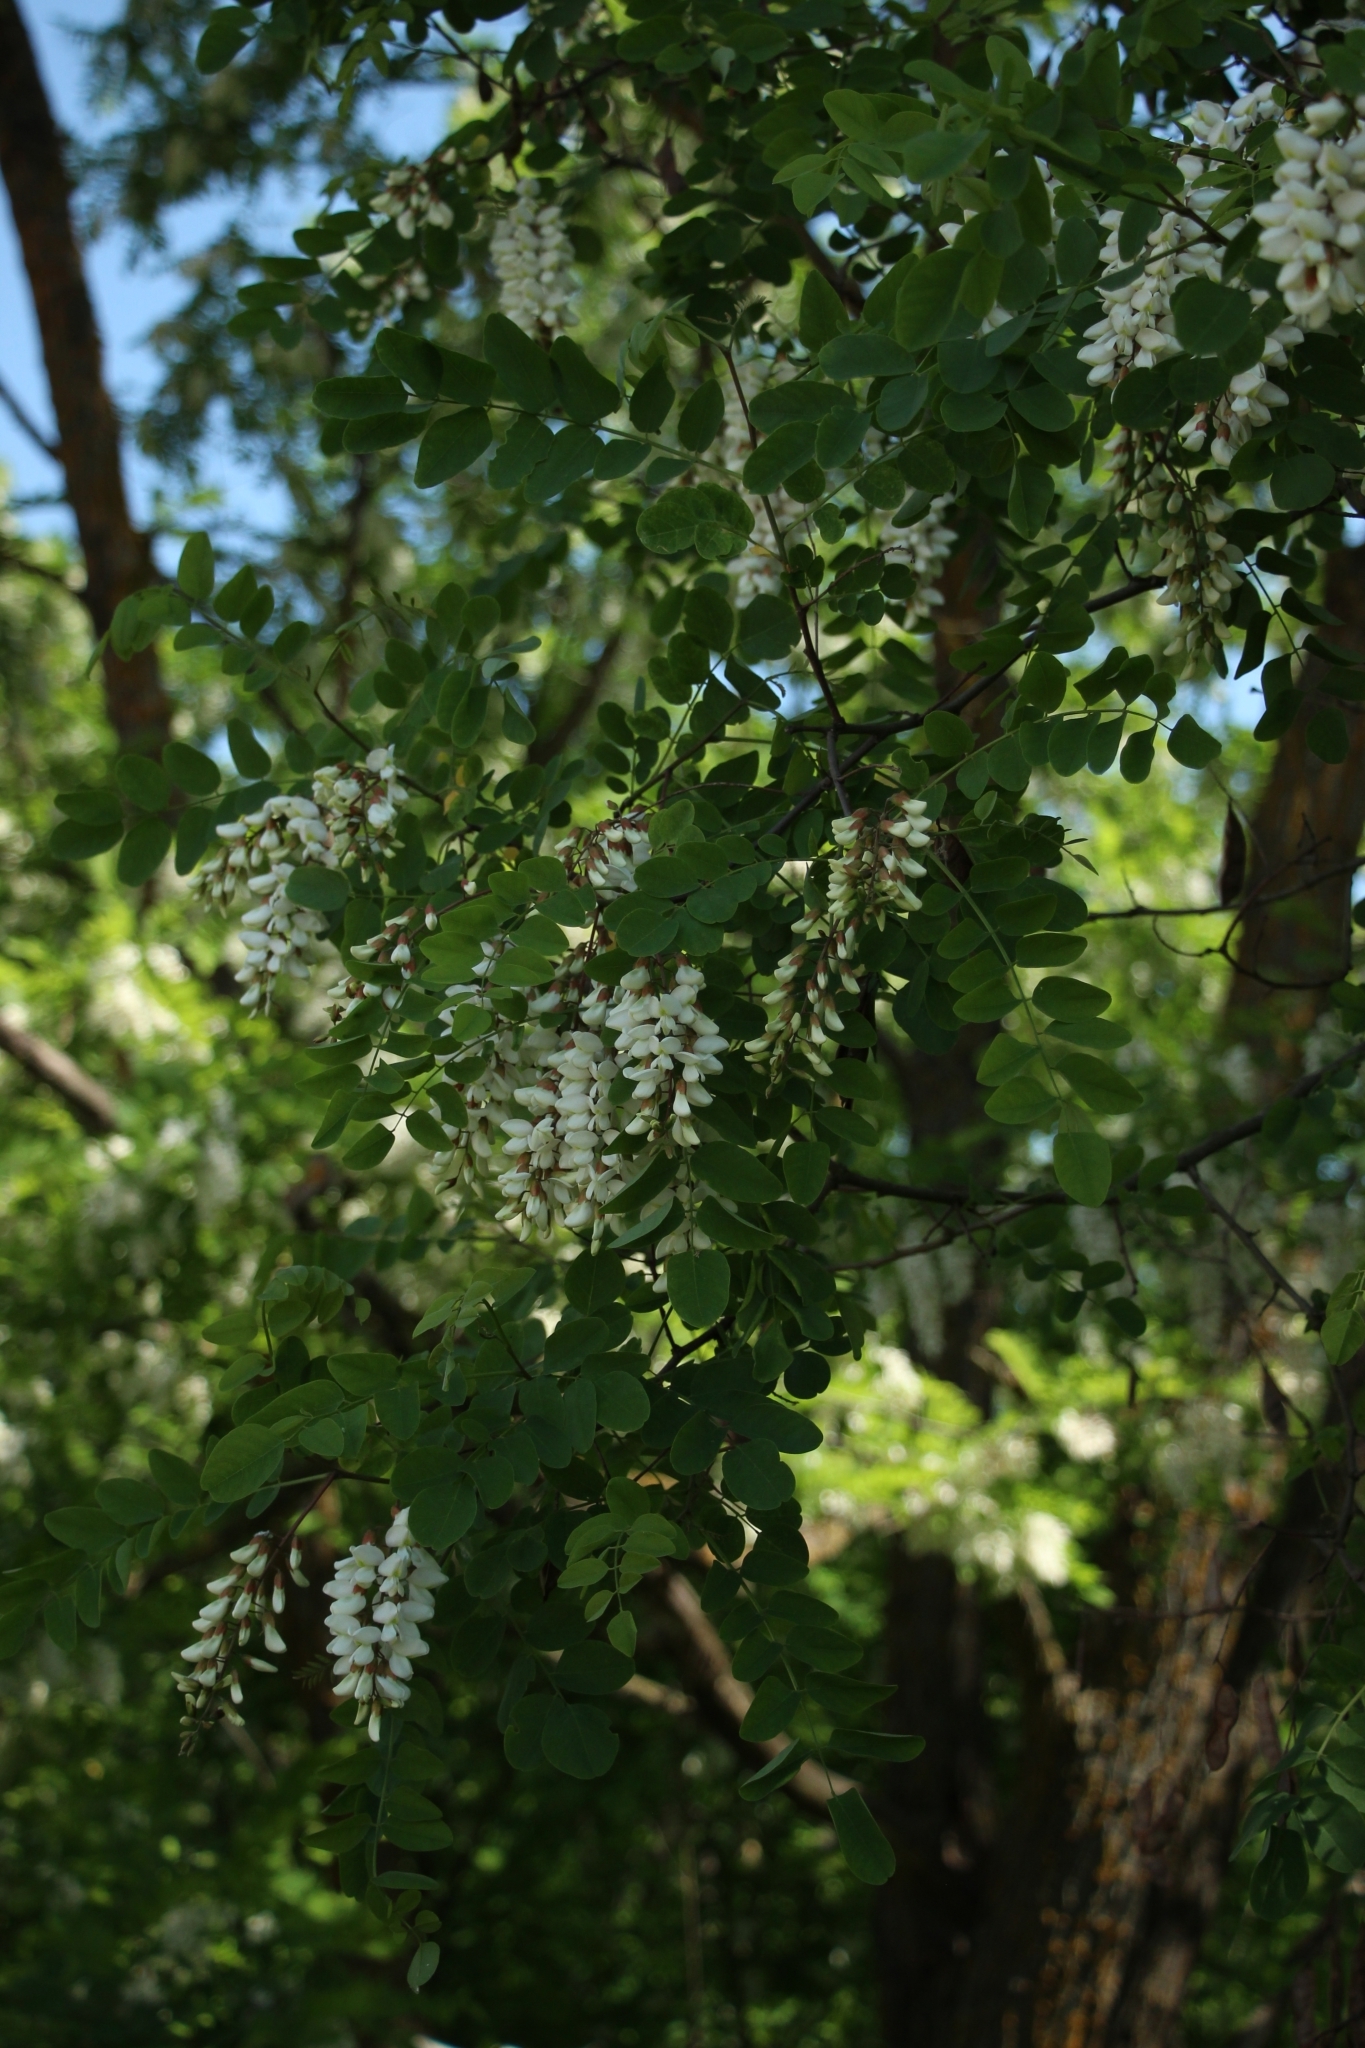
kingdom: Plantae
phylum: Tracheophyta
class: Magnoliopsida
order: Fabales
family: Fabaceae
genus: Robinia
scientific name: Robinia pseudoacacia
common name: Black locust
